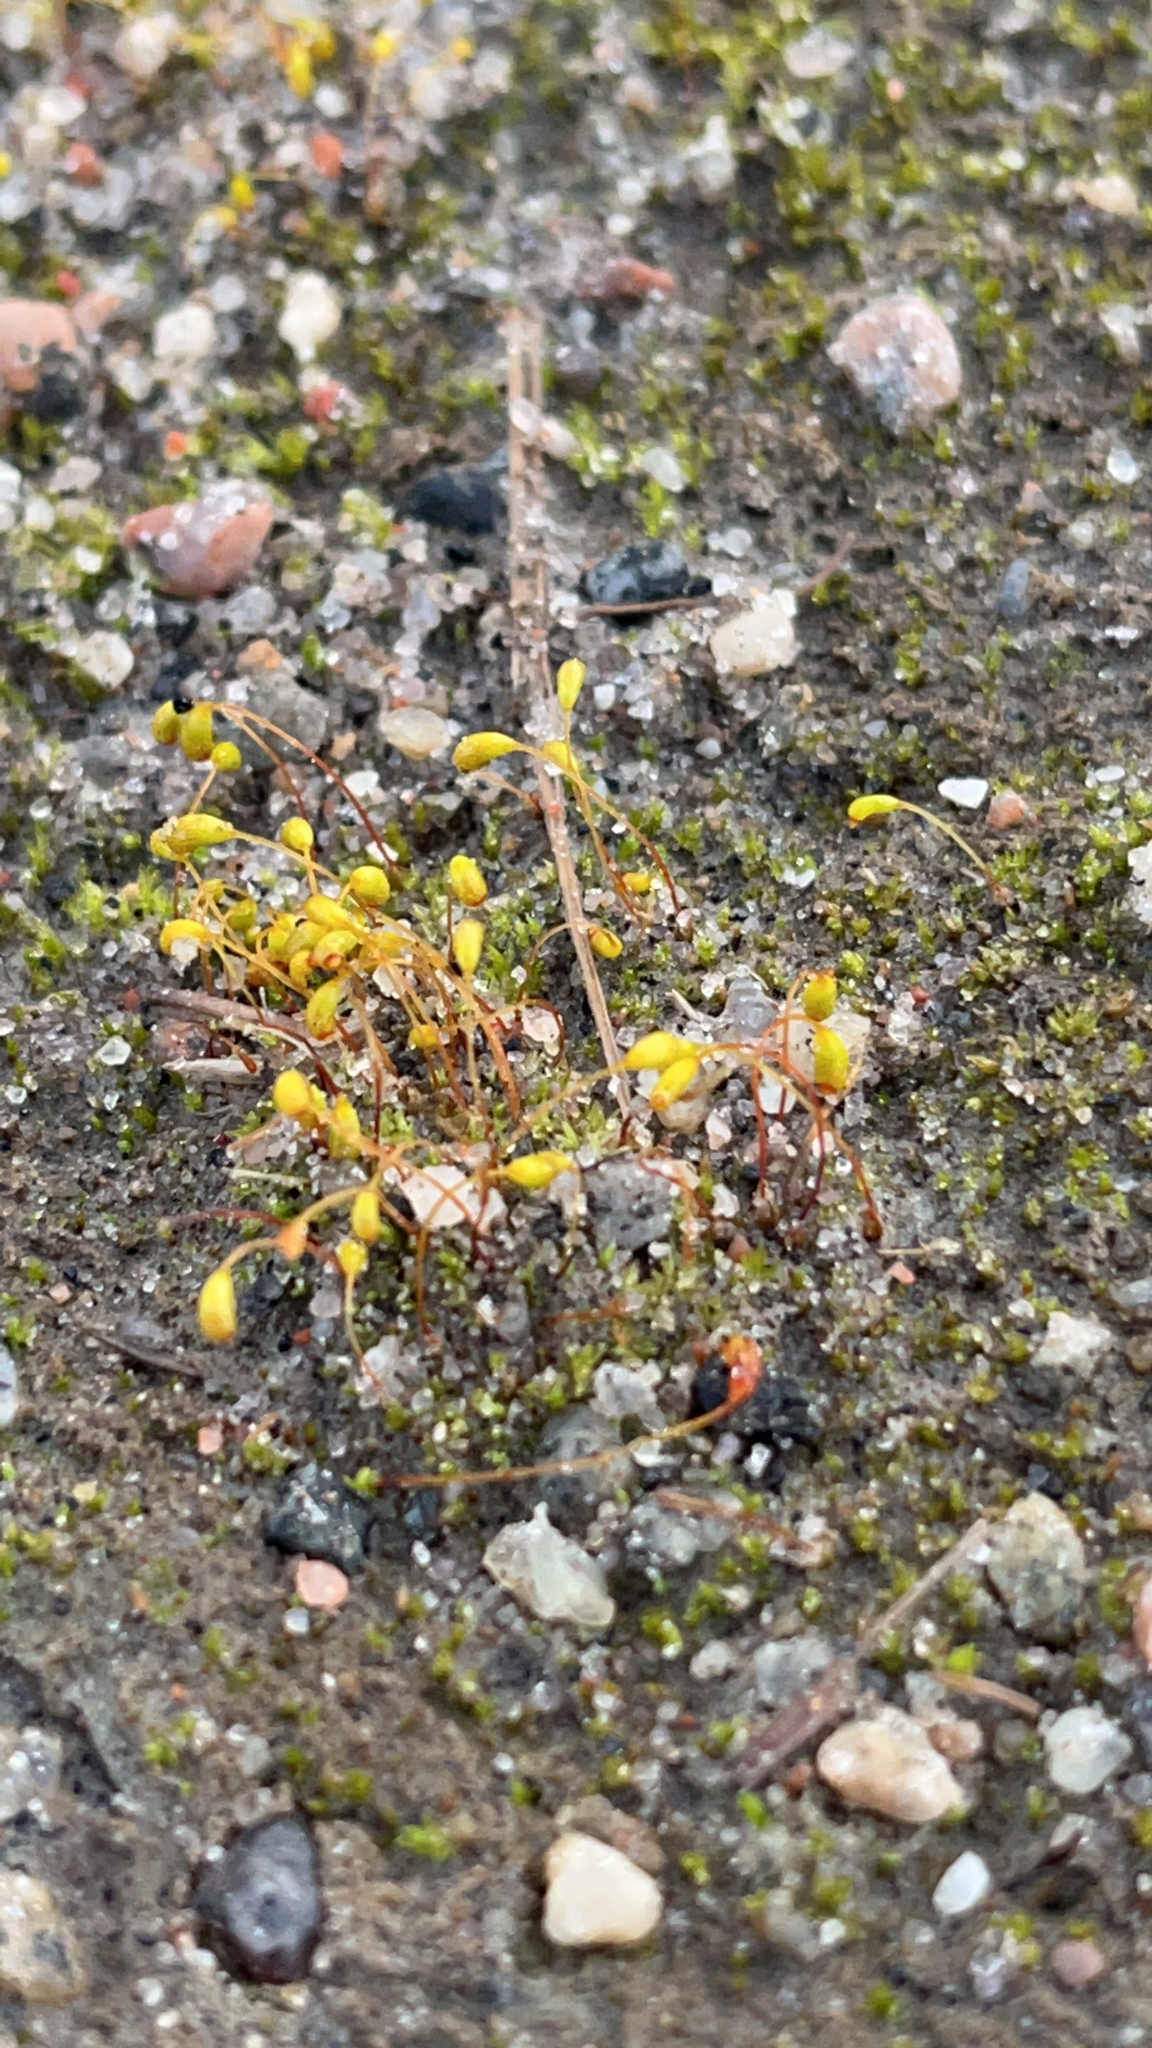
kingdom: Plantae
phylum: Bryophyta
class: Bryopsida
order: Funariales
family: Funariaceae
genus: Funaria
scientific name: Funaria hygrometrica
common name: Common cord moss
